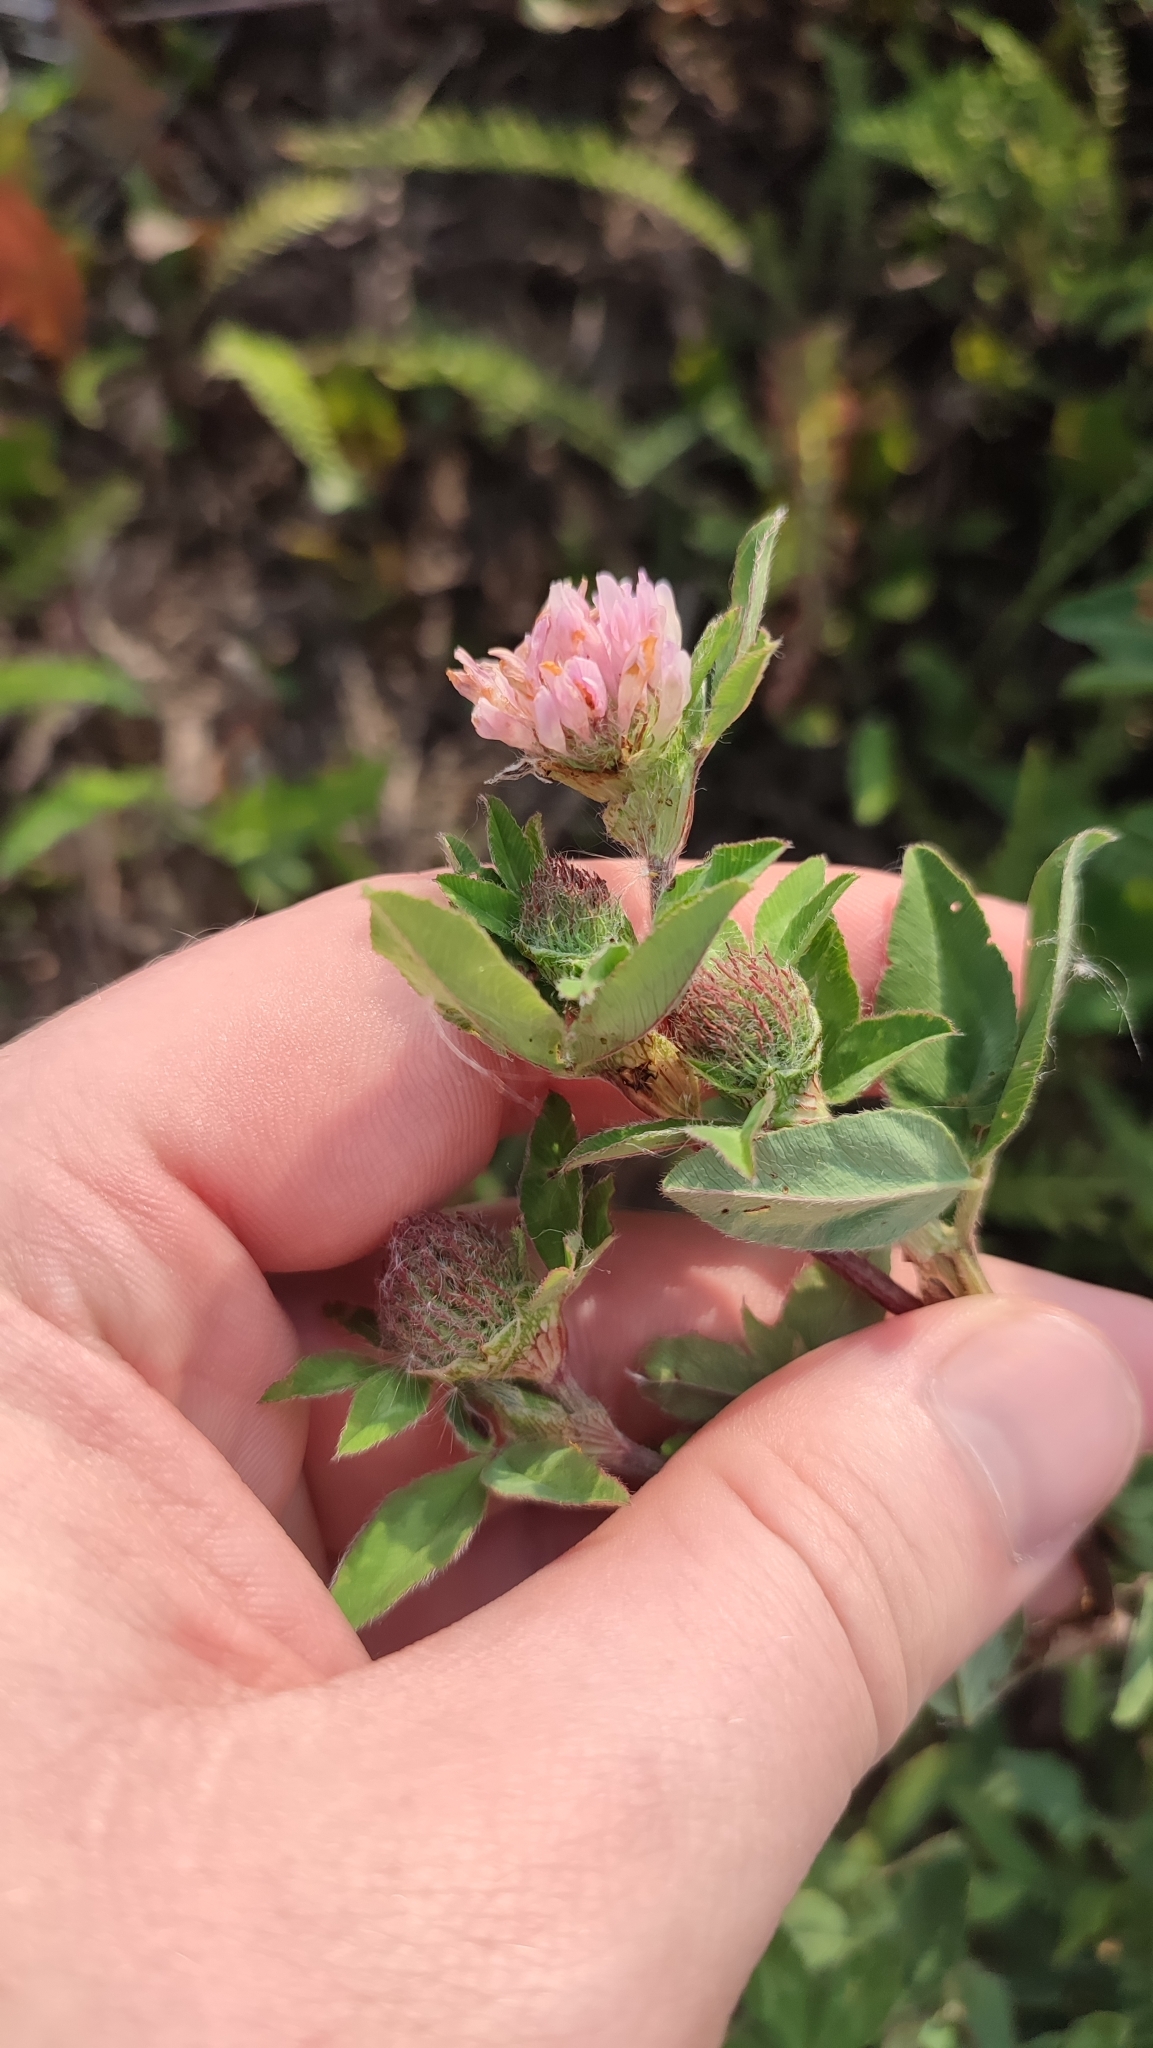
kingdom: Plantae
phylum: Tracheophyta
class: Magnoliopsida
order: Fabales
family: Fabaceae
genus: Trifolium
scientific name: Trifolium pratense
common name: Red clover
